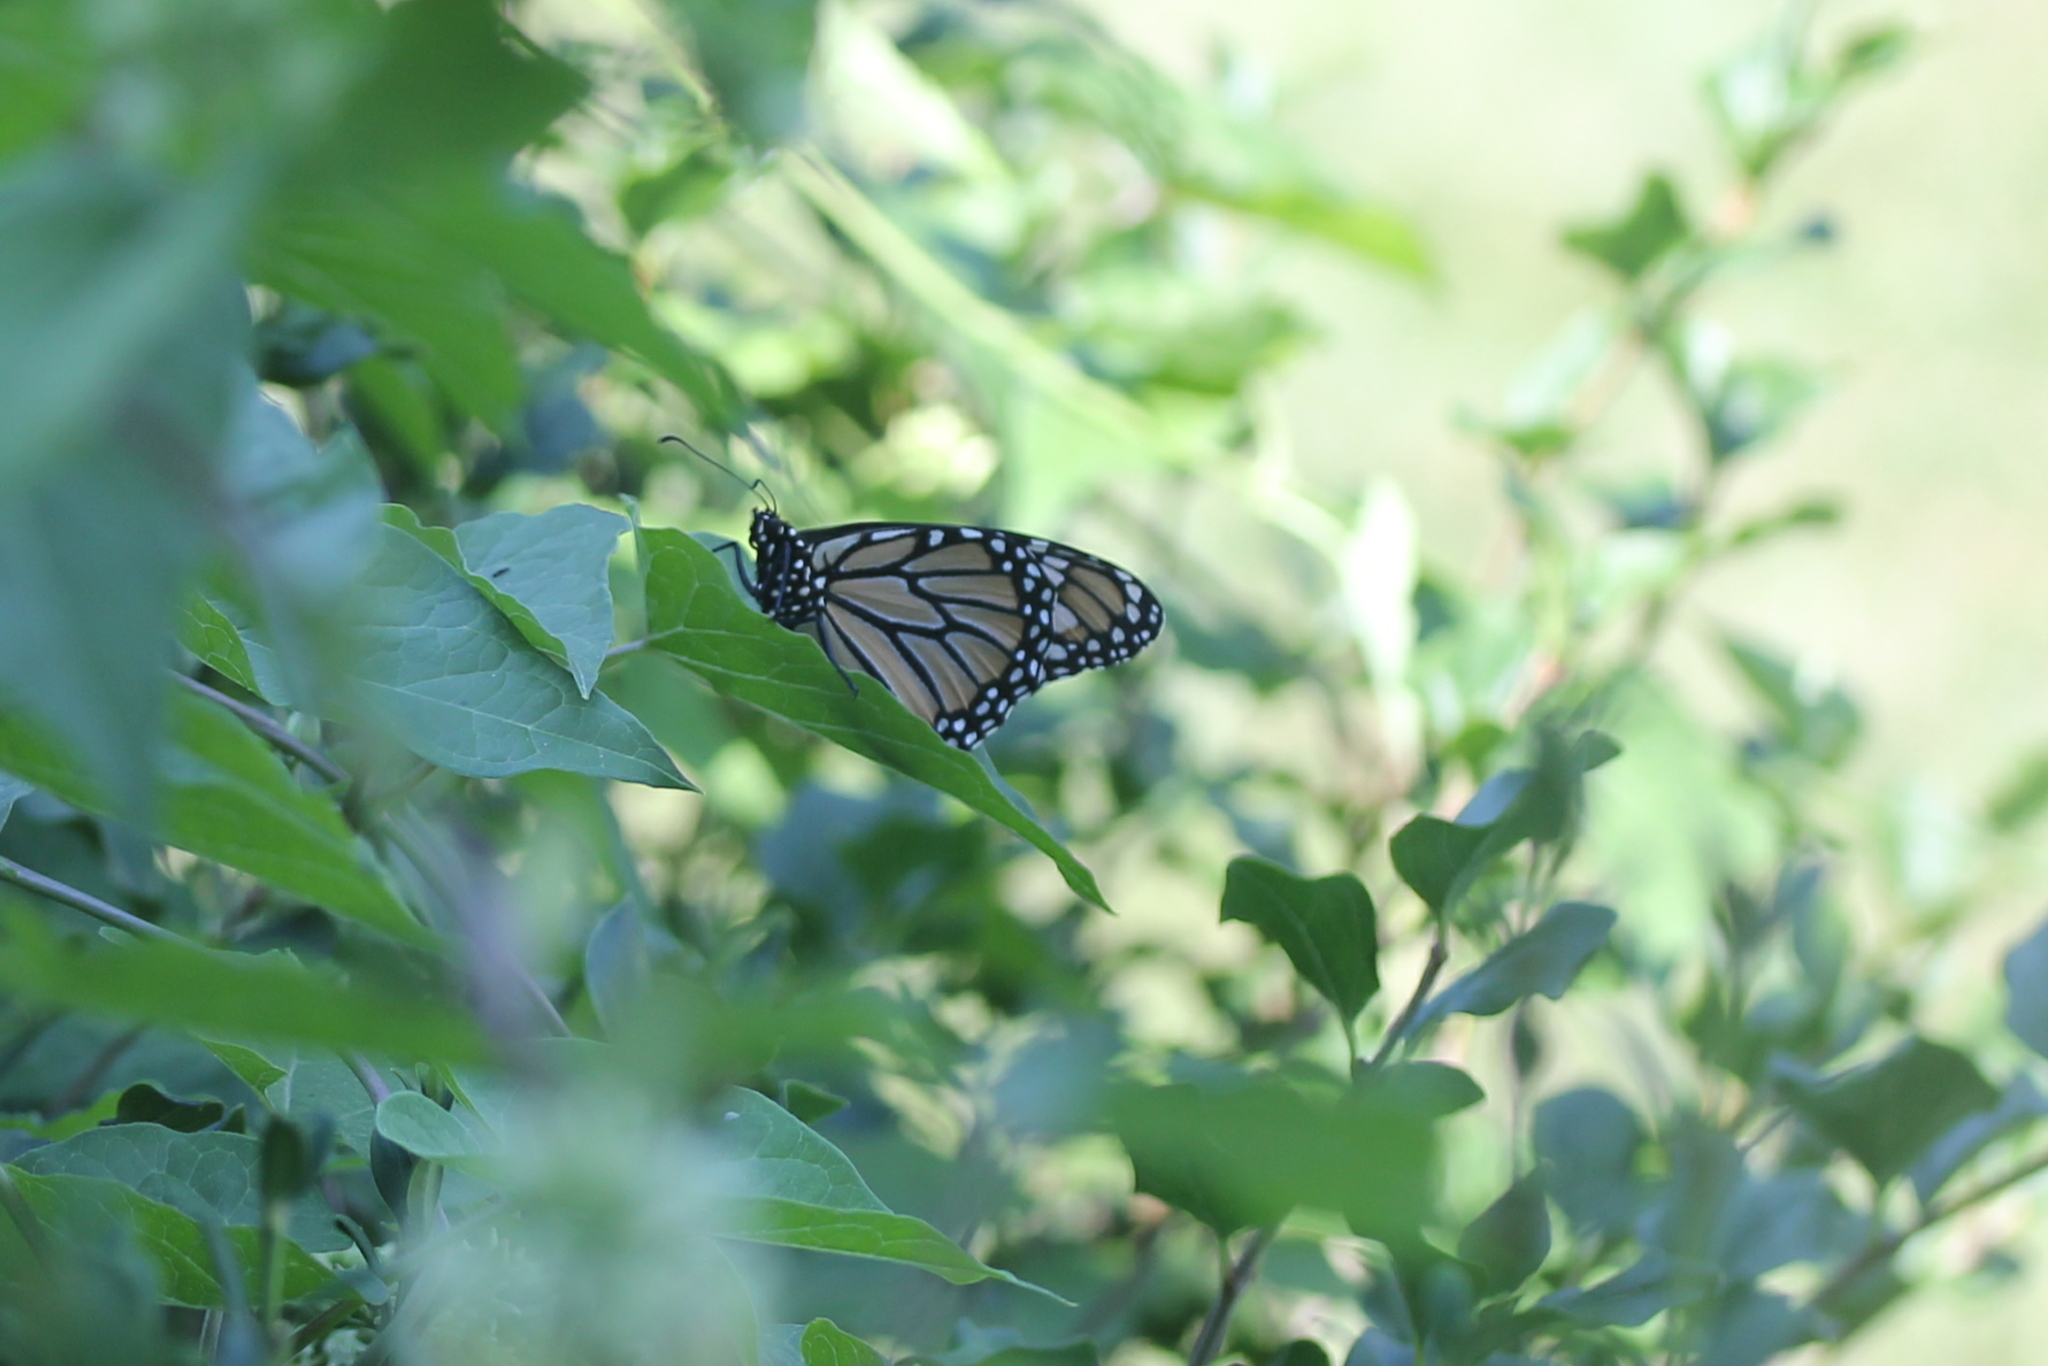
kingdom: Animalia
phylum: Arthropoda
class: Insecta
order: Lepidoptera
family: Nymphalidae
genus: Danaus
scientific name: Danaus plexippus
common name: Monarch
